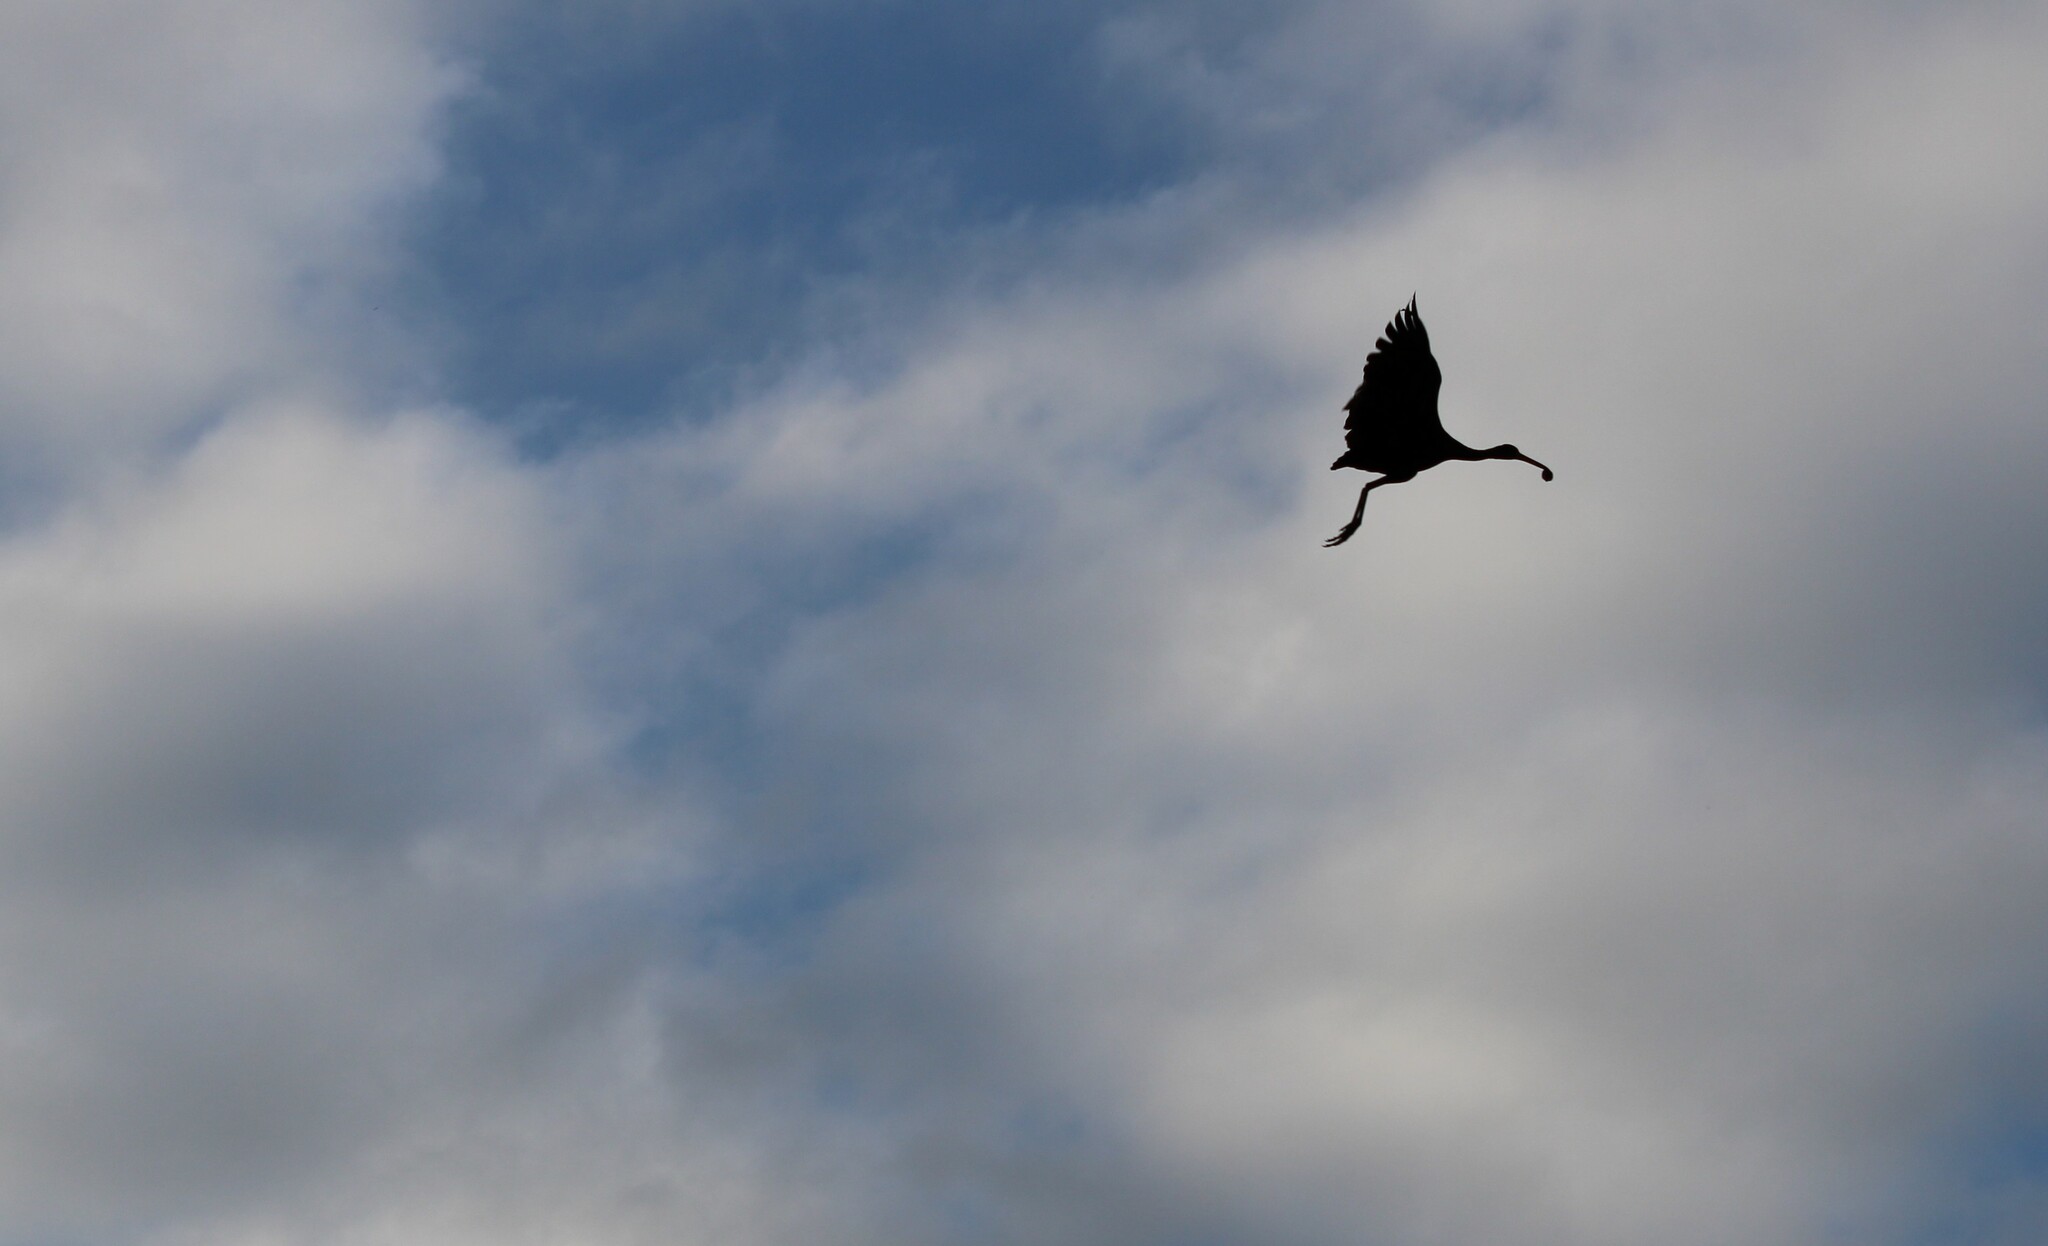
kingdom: Animalia
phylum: Chordata
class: Aves
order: Gruiformes
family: Aramidae
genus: Aramus
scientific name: Aramus guarauna
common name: Limpkin
